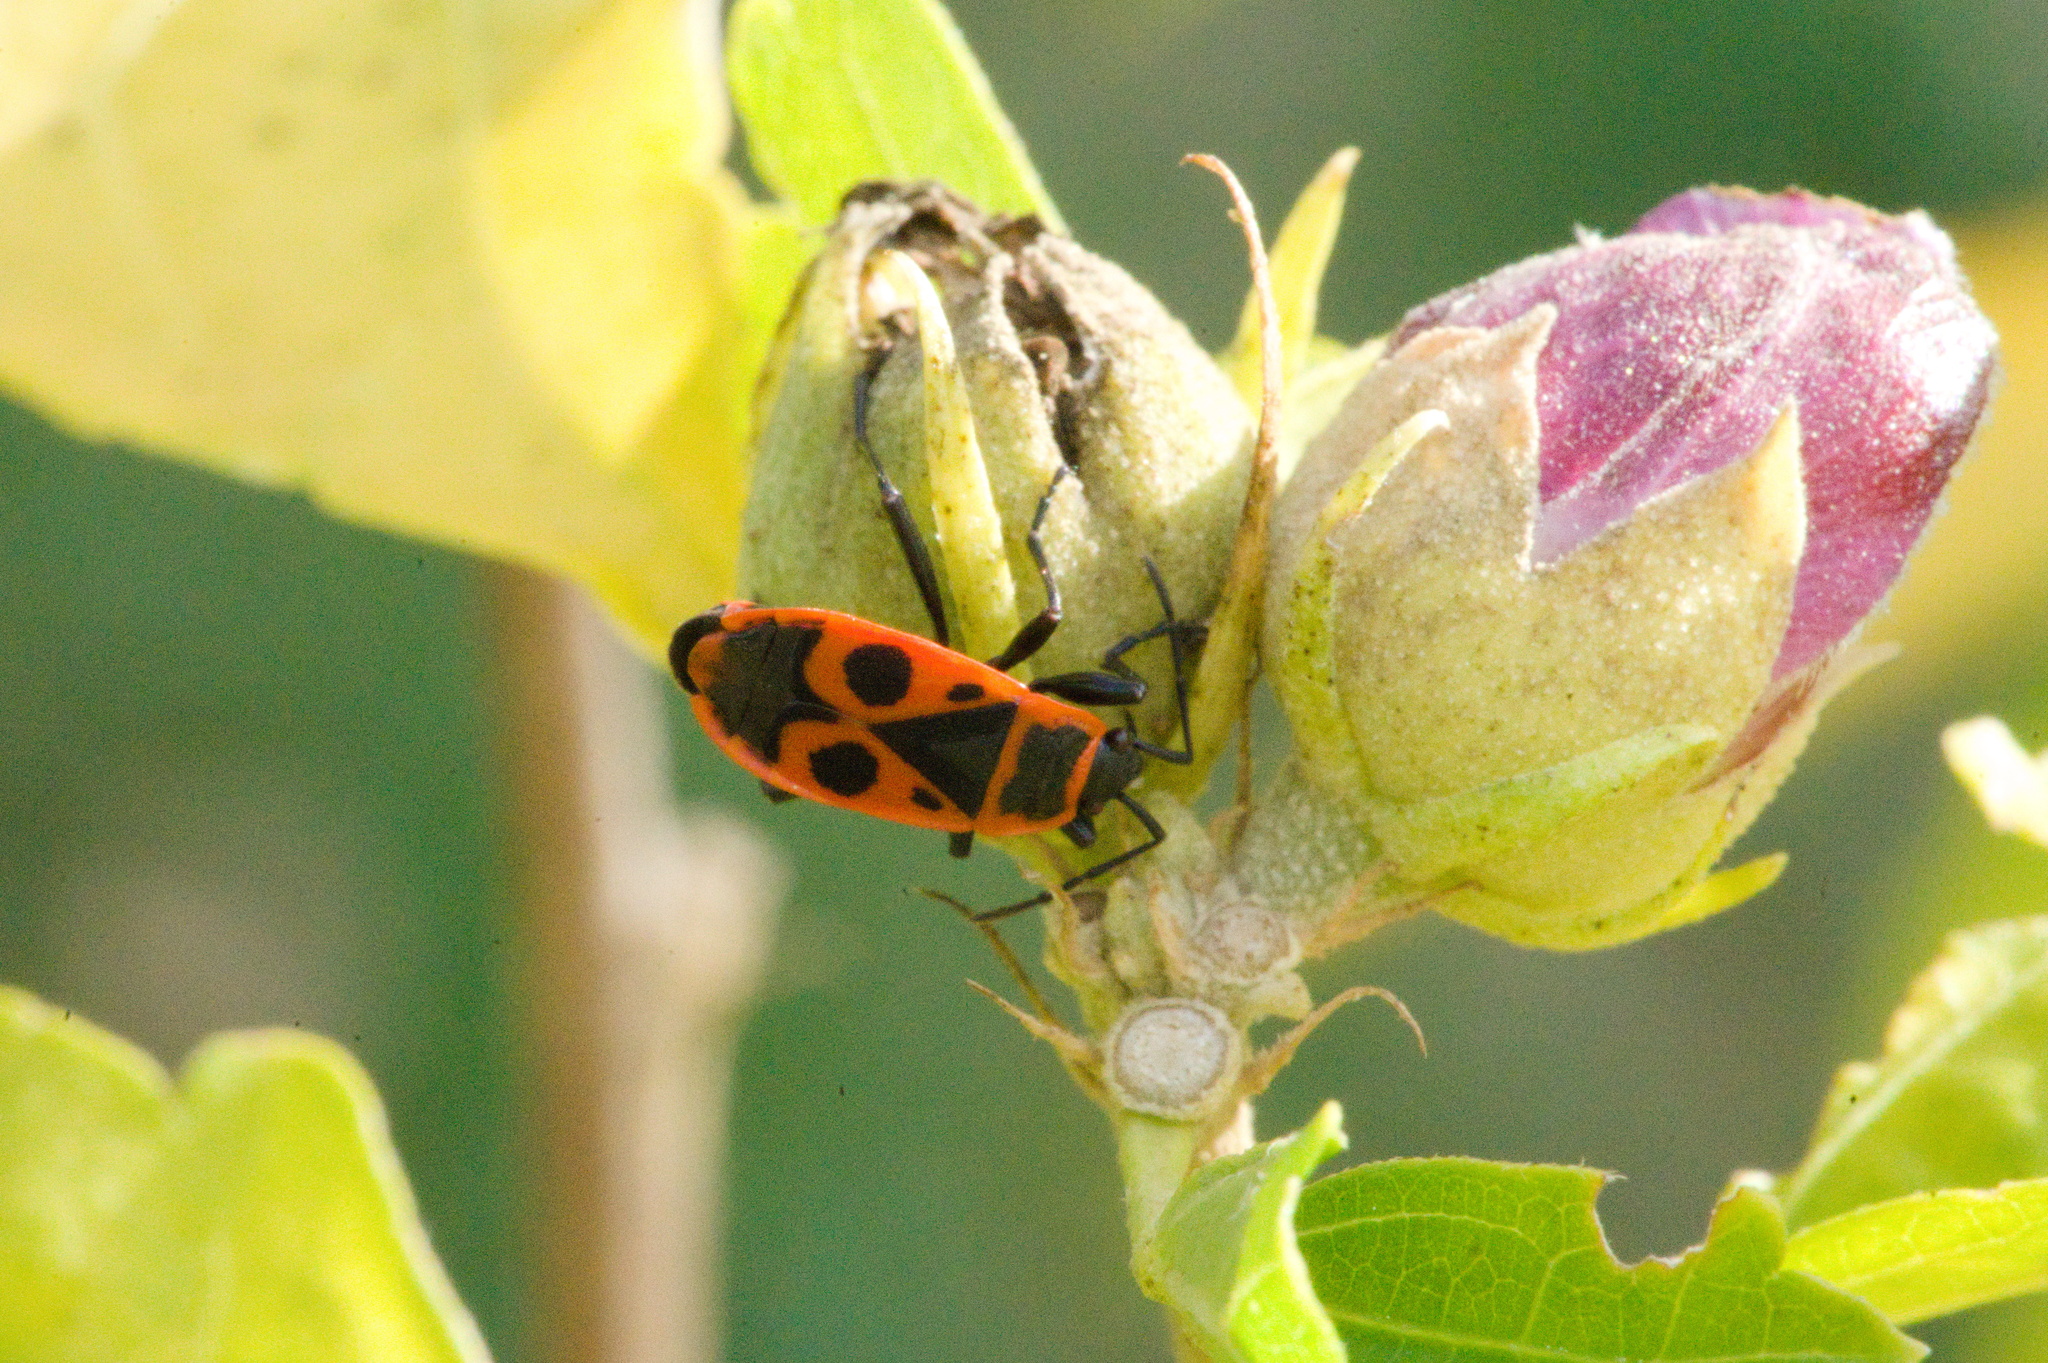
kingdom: Animalia
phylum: Arthropoda
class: Insecta
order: Hemiptera
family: Pyrrhocoridae
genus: Pyrrhocoris
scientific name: Pyrrhocoris apterus
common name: Firebug
